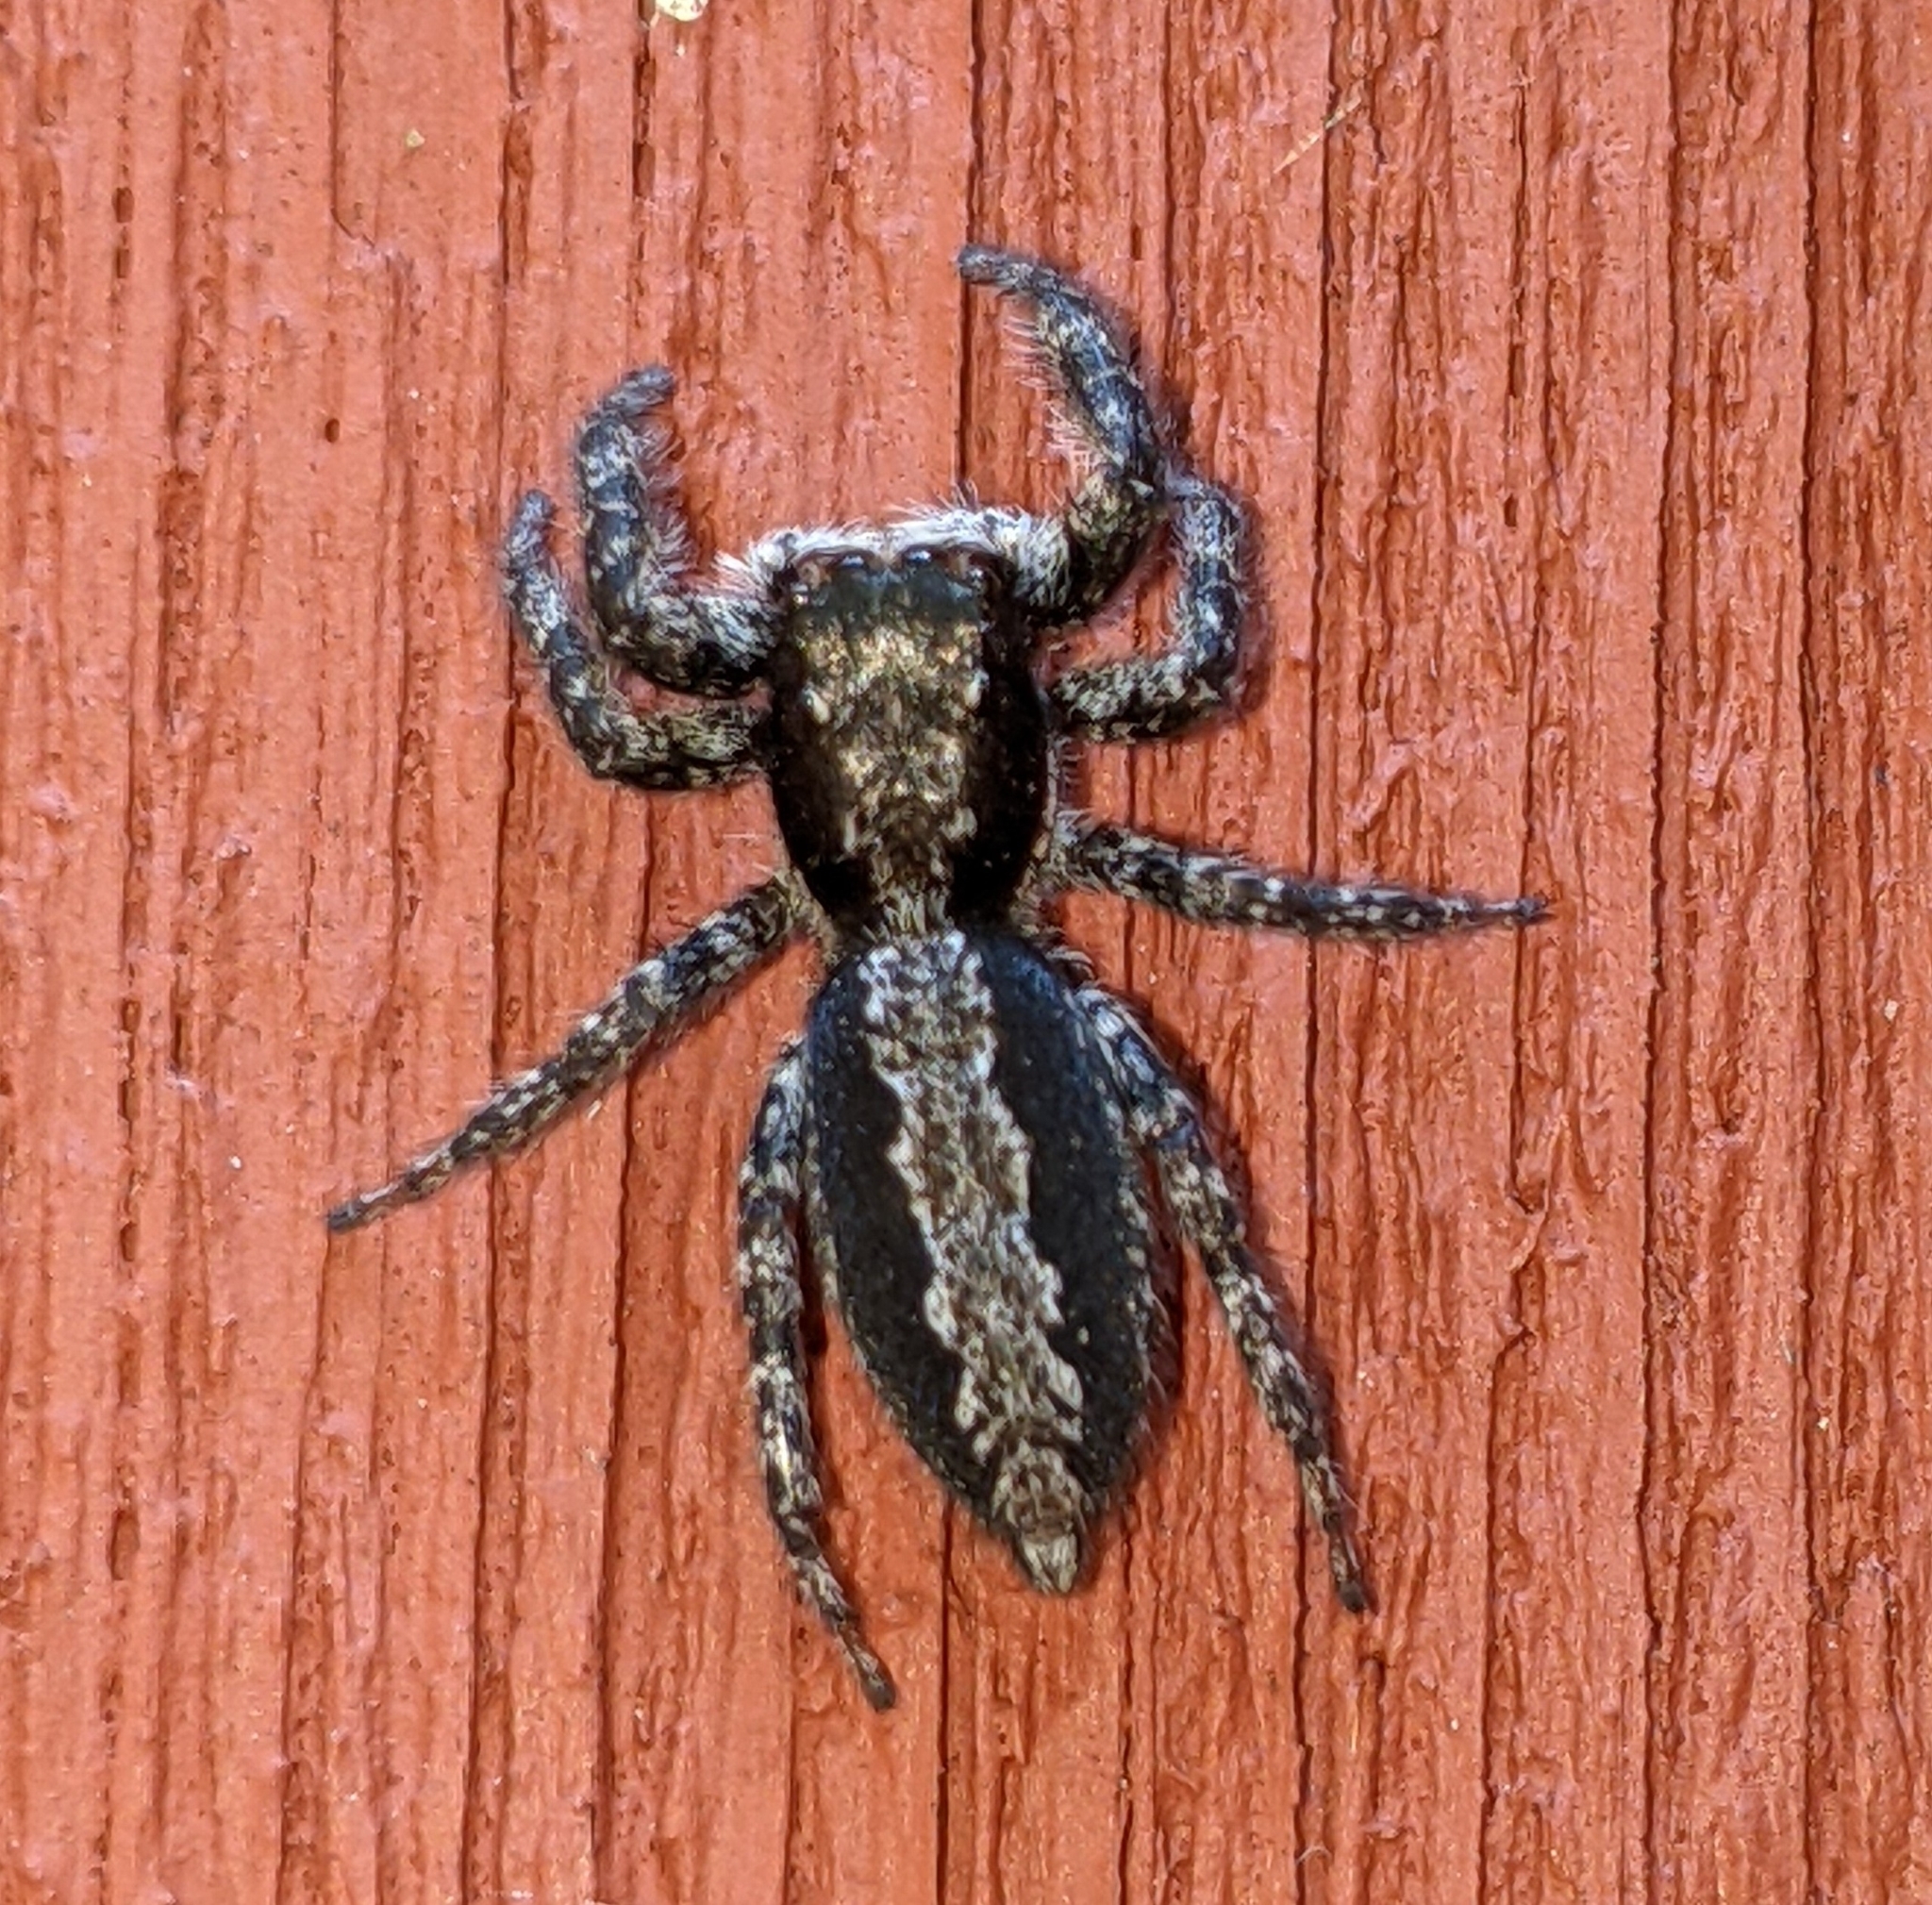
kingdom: Animalia
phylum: Arthropoda
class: Arachnida
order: Araneae
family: Salticidae
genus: Platycryptus
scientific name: Platycryptus californicus
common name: Jumping spiders
